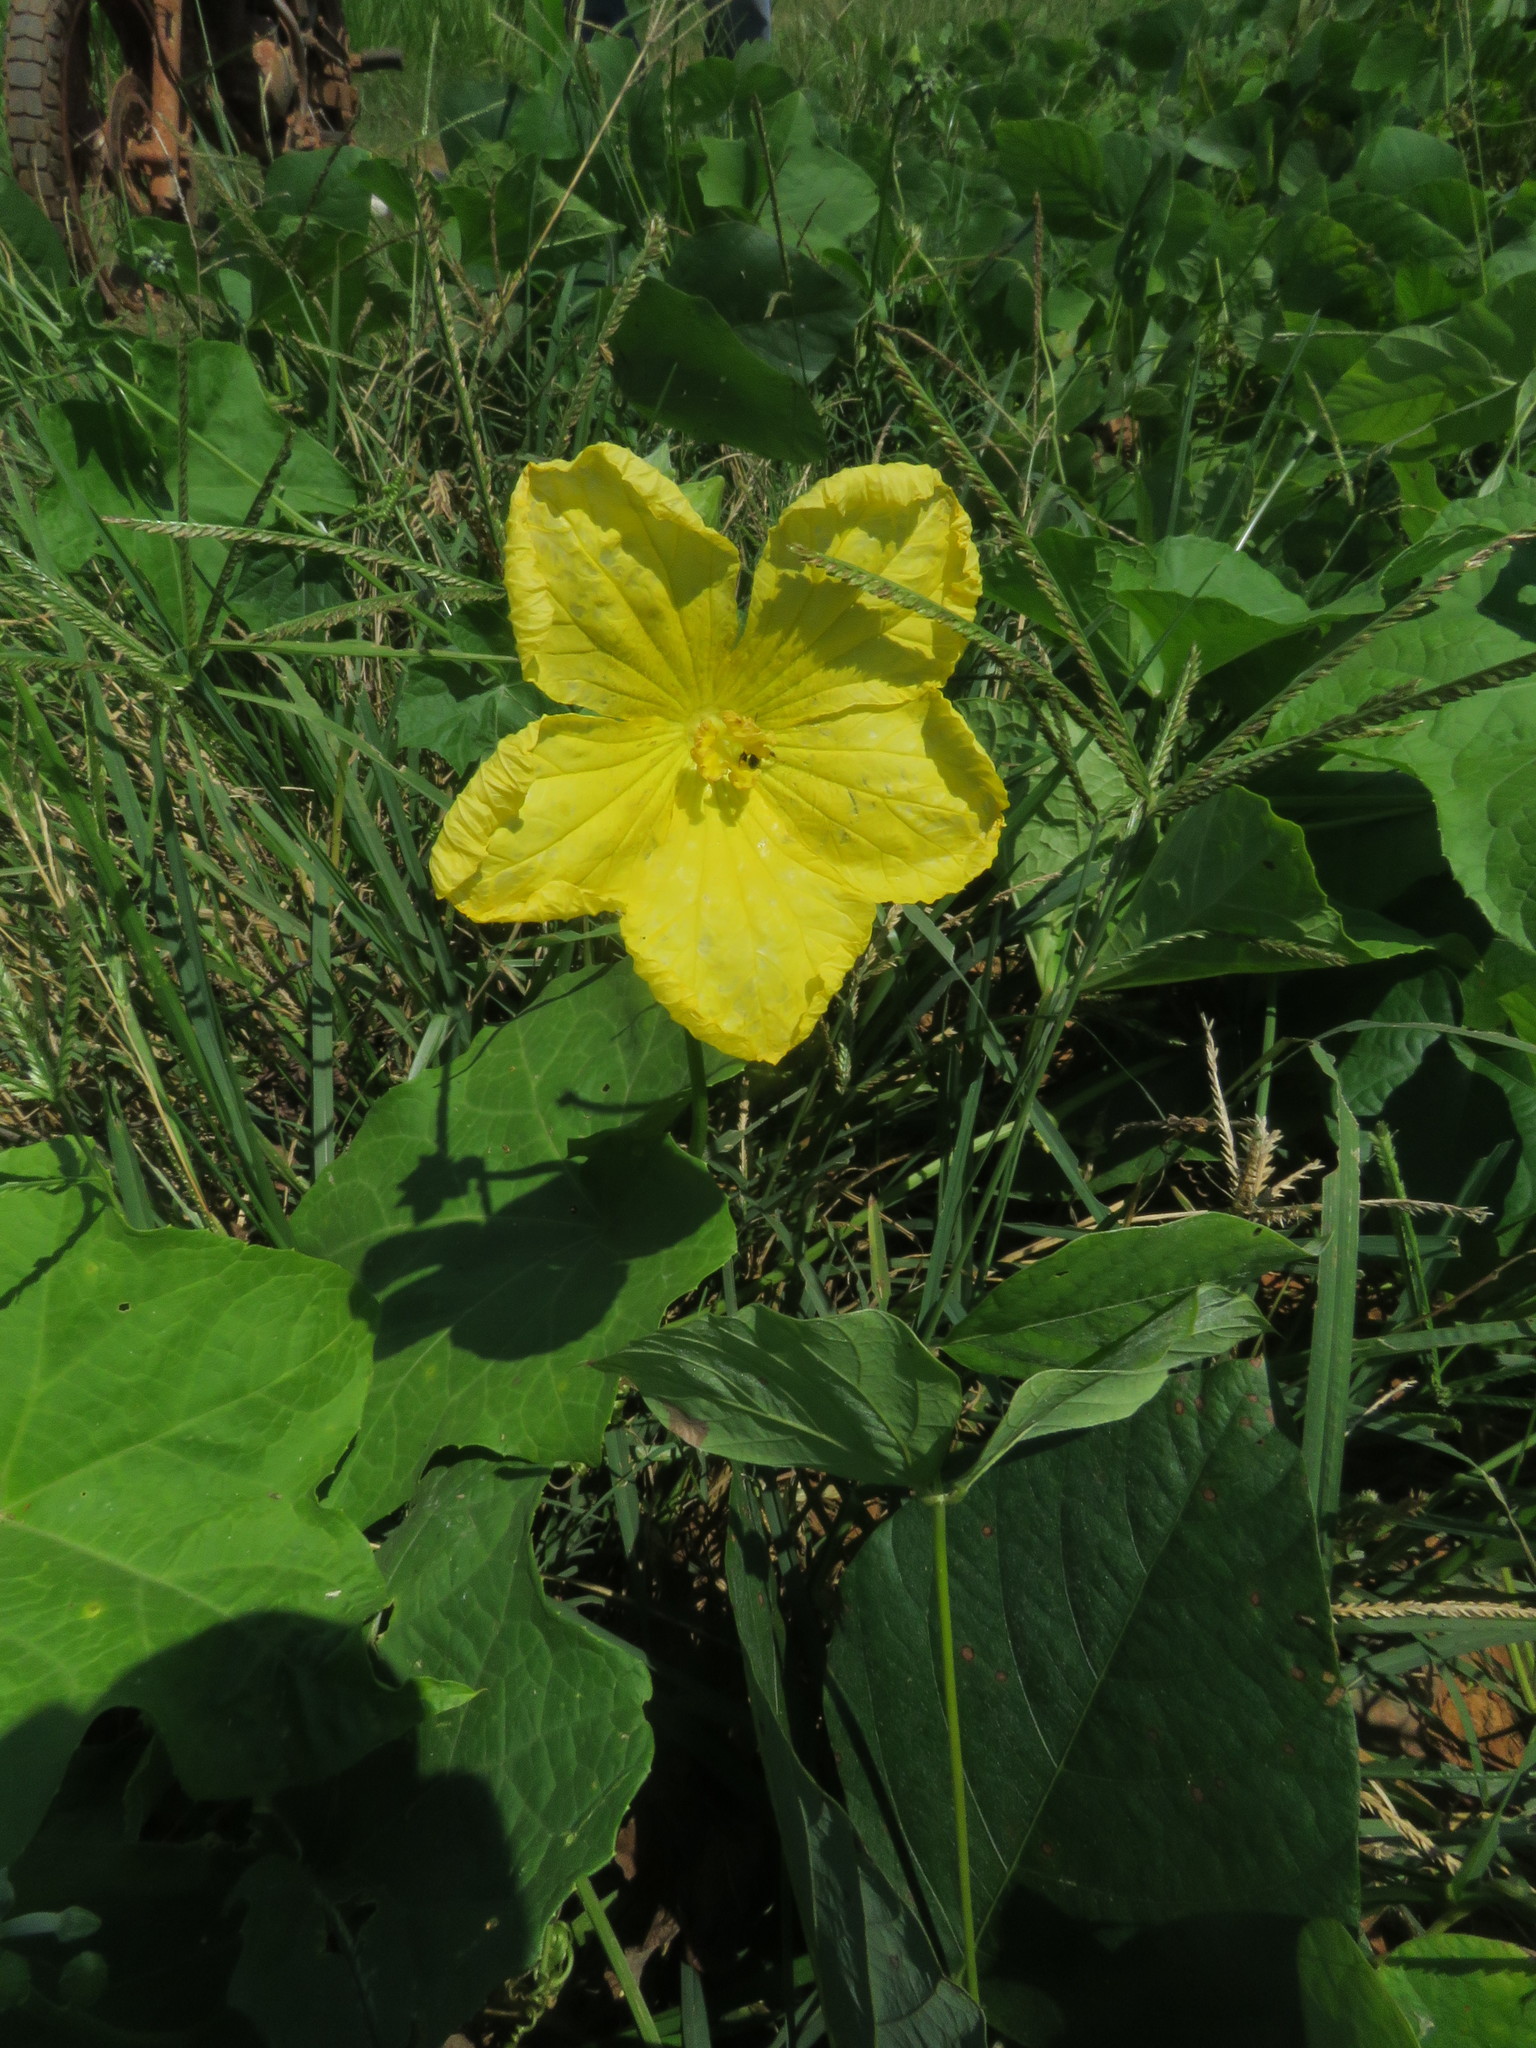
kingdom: Plantae
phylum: Tracheophyta
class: Magnoliopsida
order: Cucurbitales
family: Cucurbitaceae
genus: Luffa
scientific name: Luffa aegyptiaca
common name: Sponge gourd
